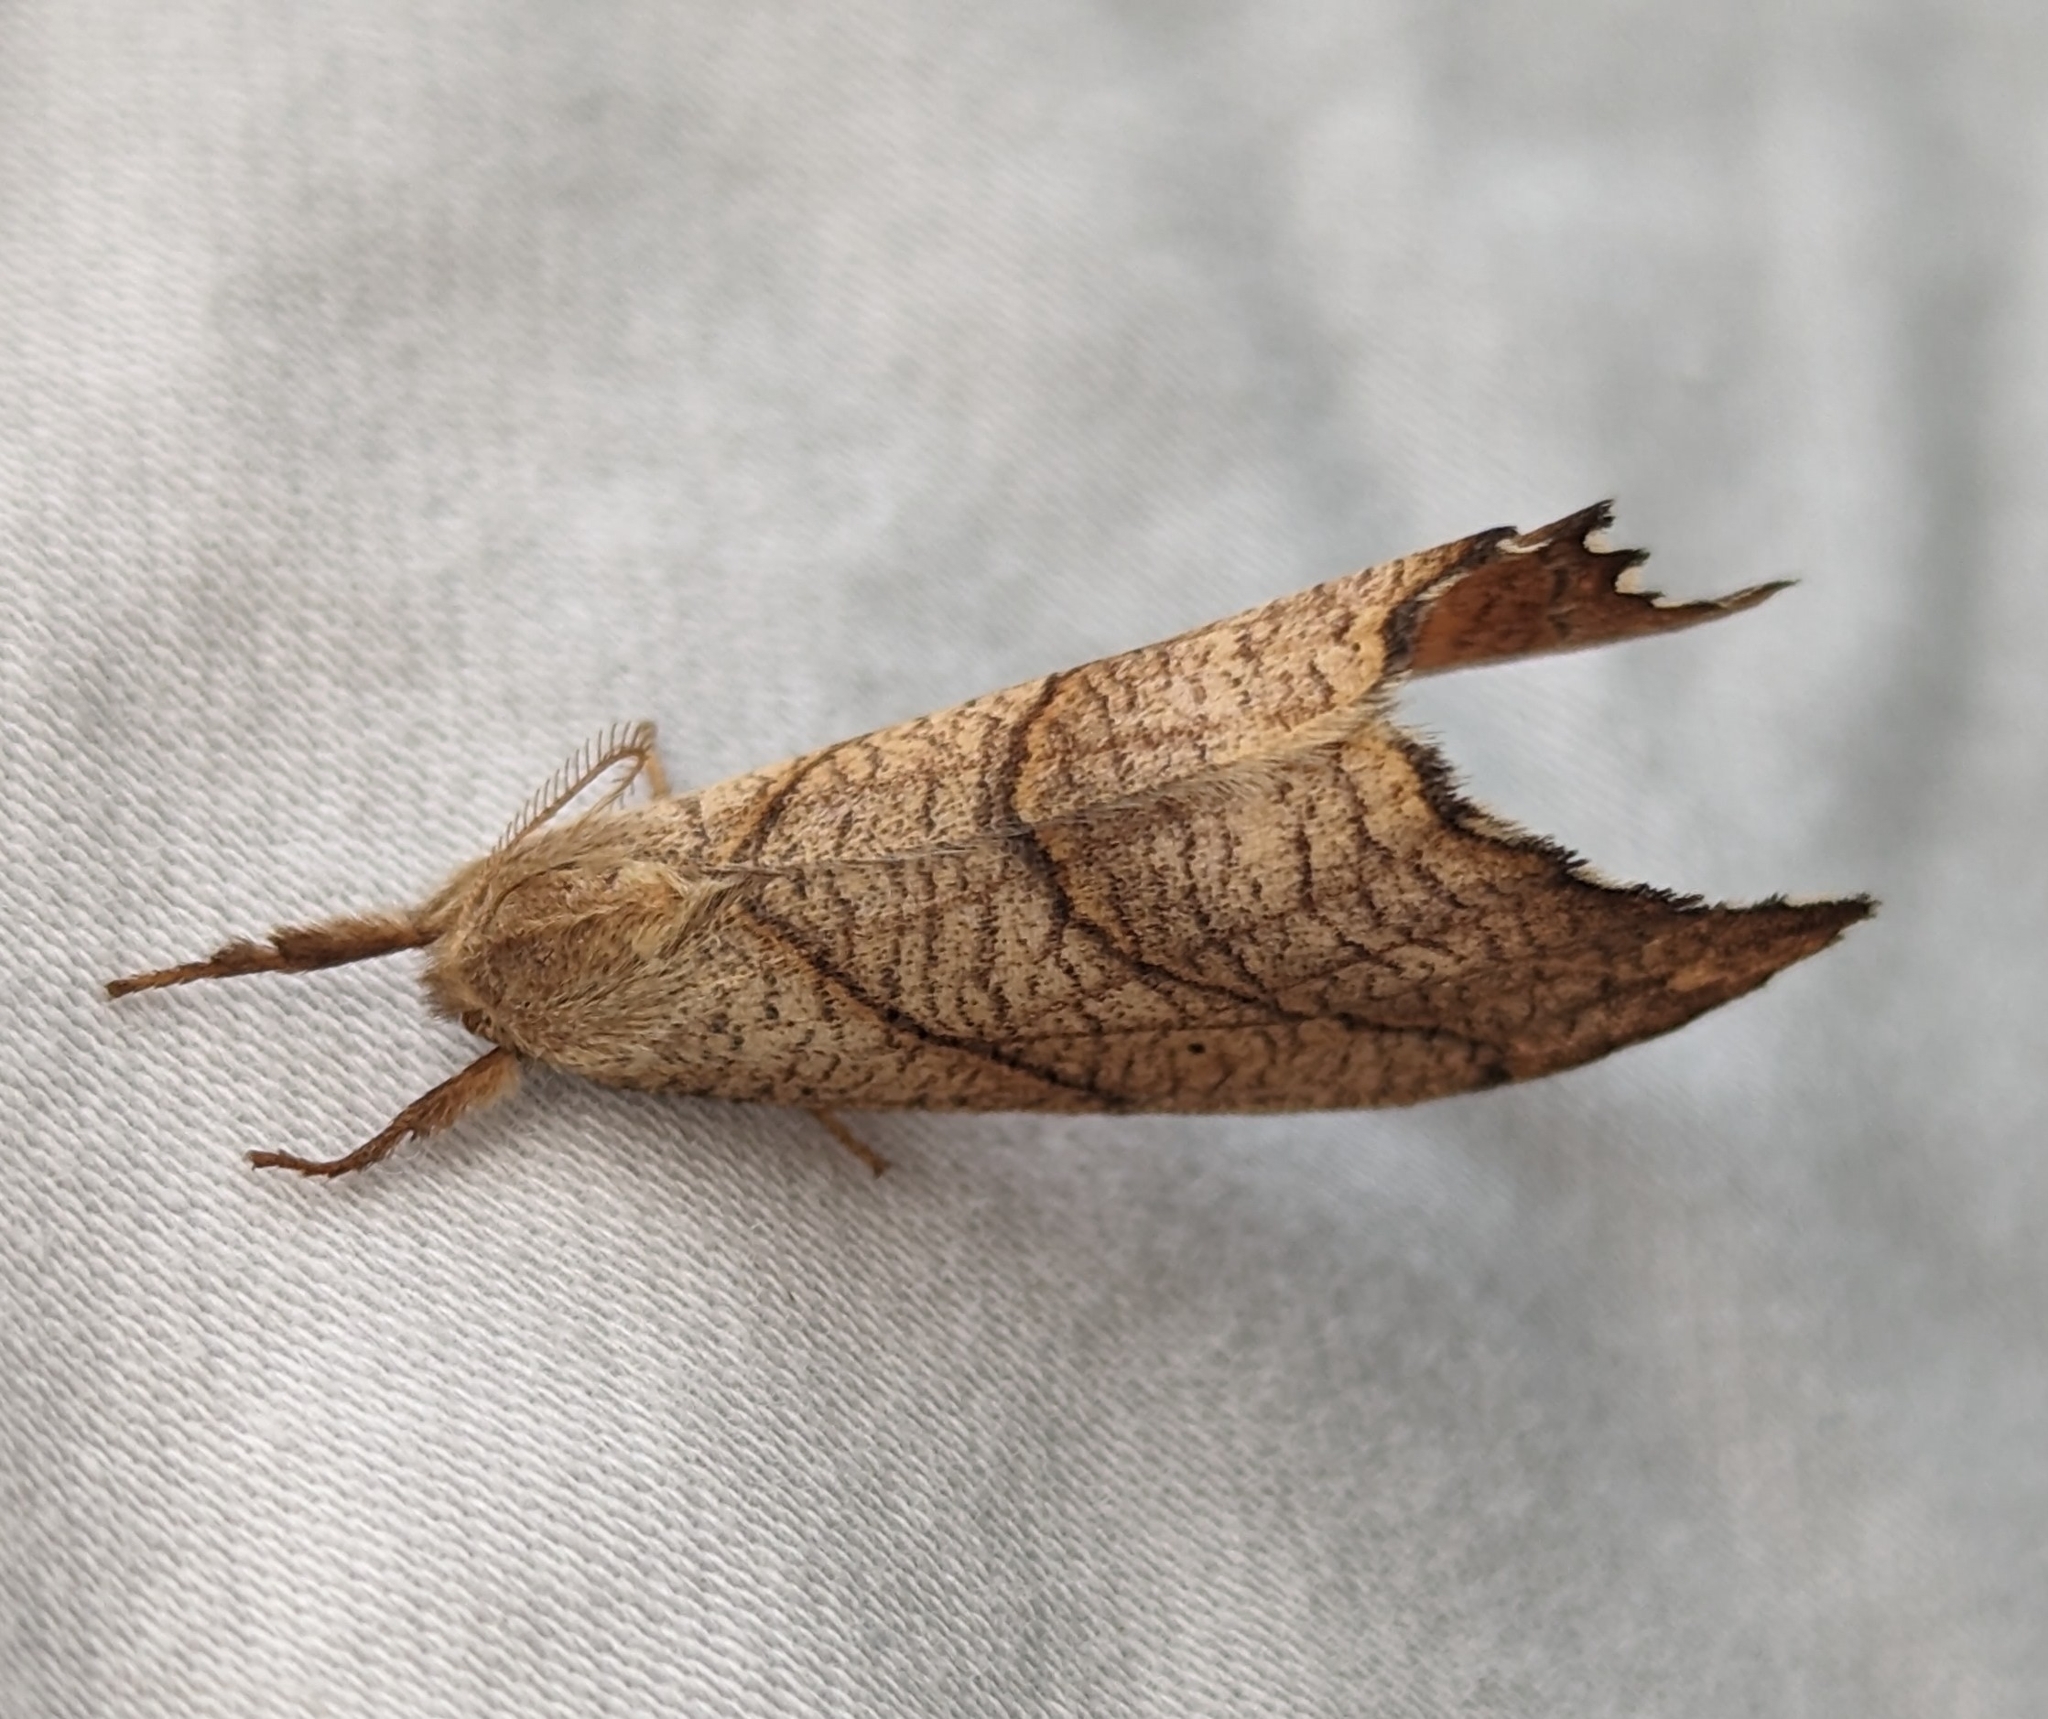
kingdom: Animalia
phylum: Arthropoda
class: Insecta
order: Lepidoptera
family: Drepanidae
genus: Falcaria
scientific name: Falcaria bilineata
